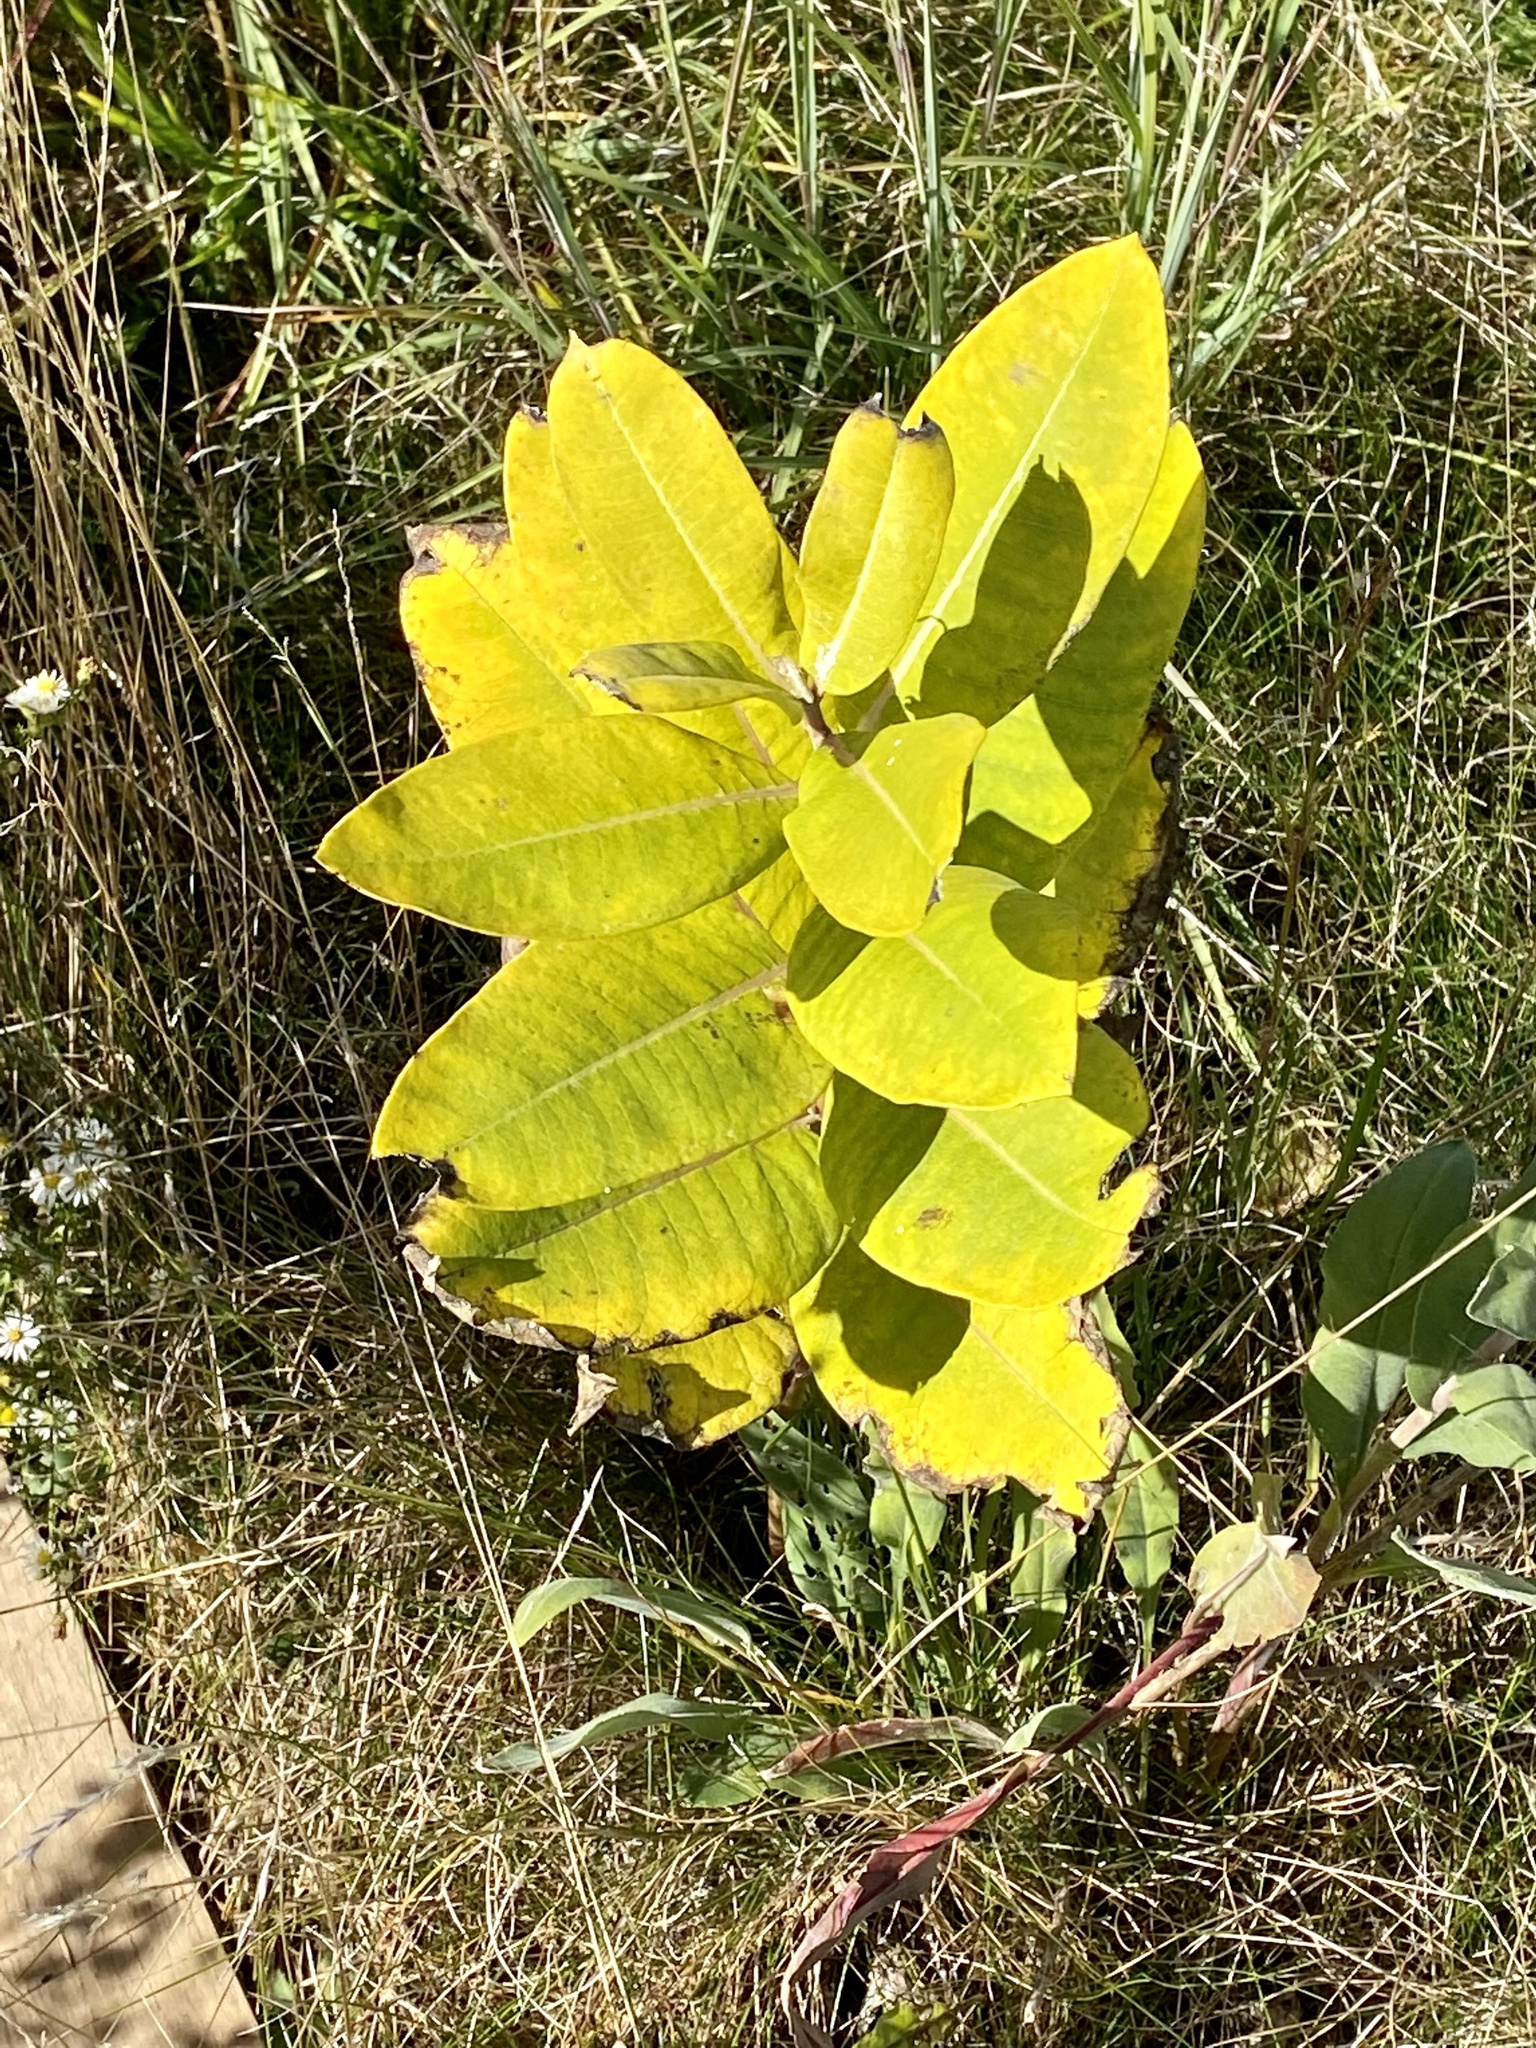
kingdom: Plantae
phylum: Tracheophyta
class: Magnoliopsida
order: Gentianales
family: Apocynaceae
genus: Asclepias
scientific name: Asclepias syriaca
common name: Common milkweed
